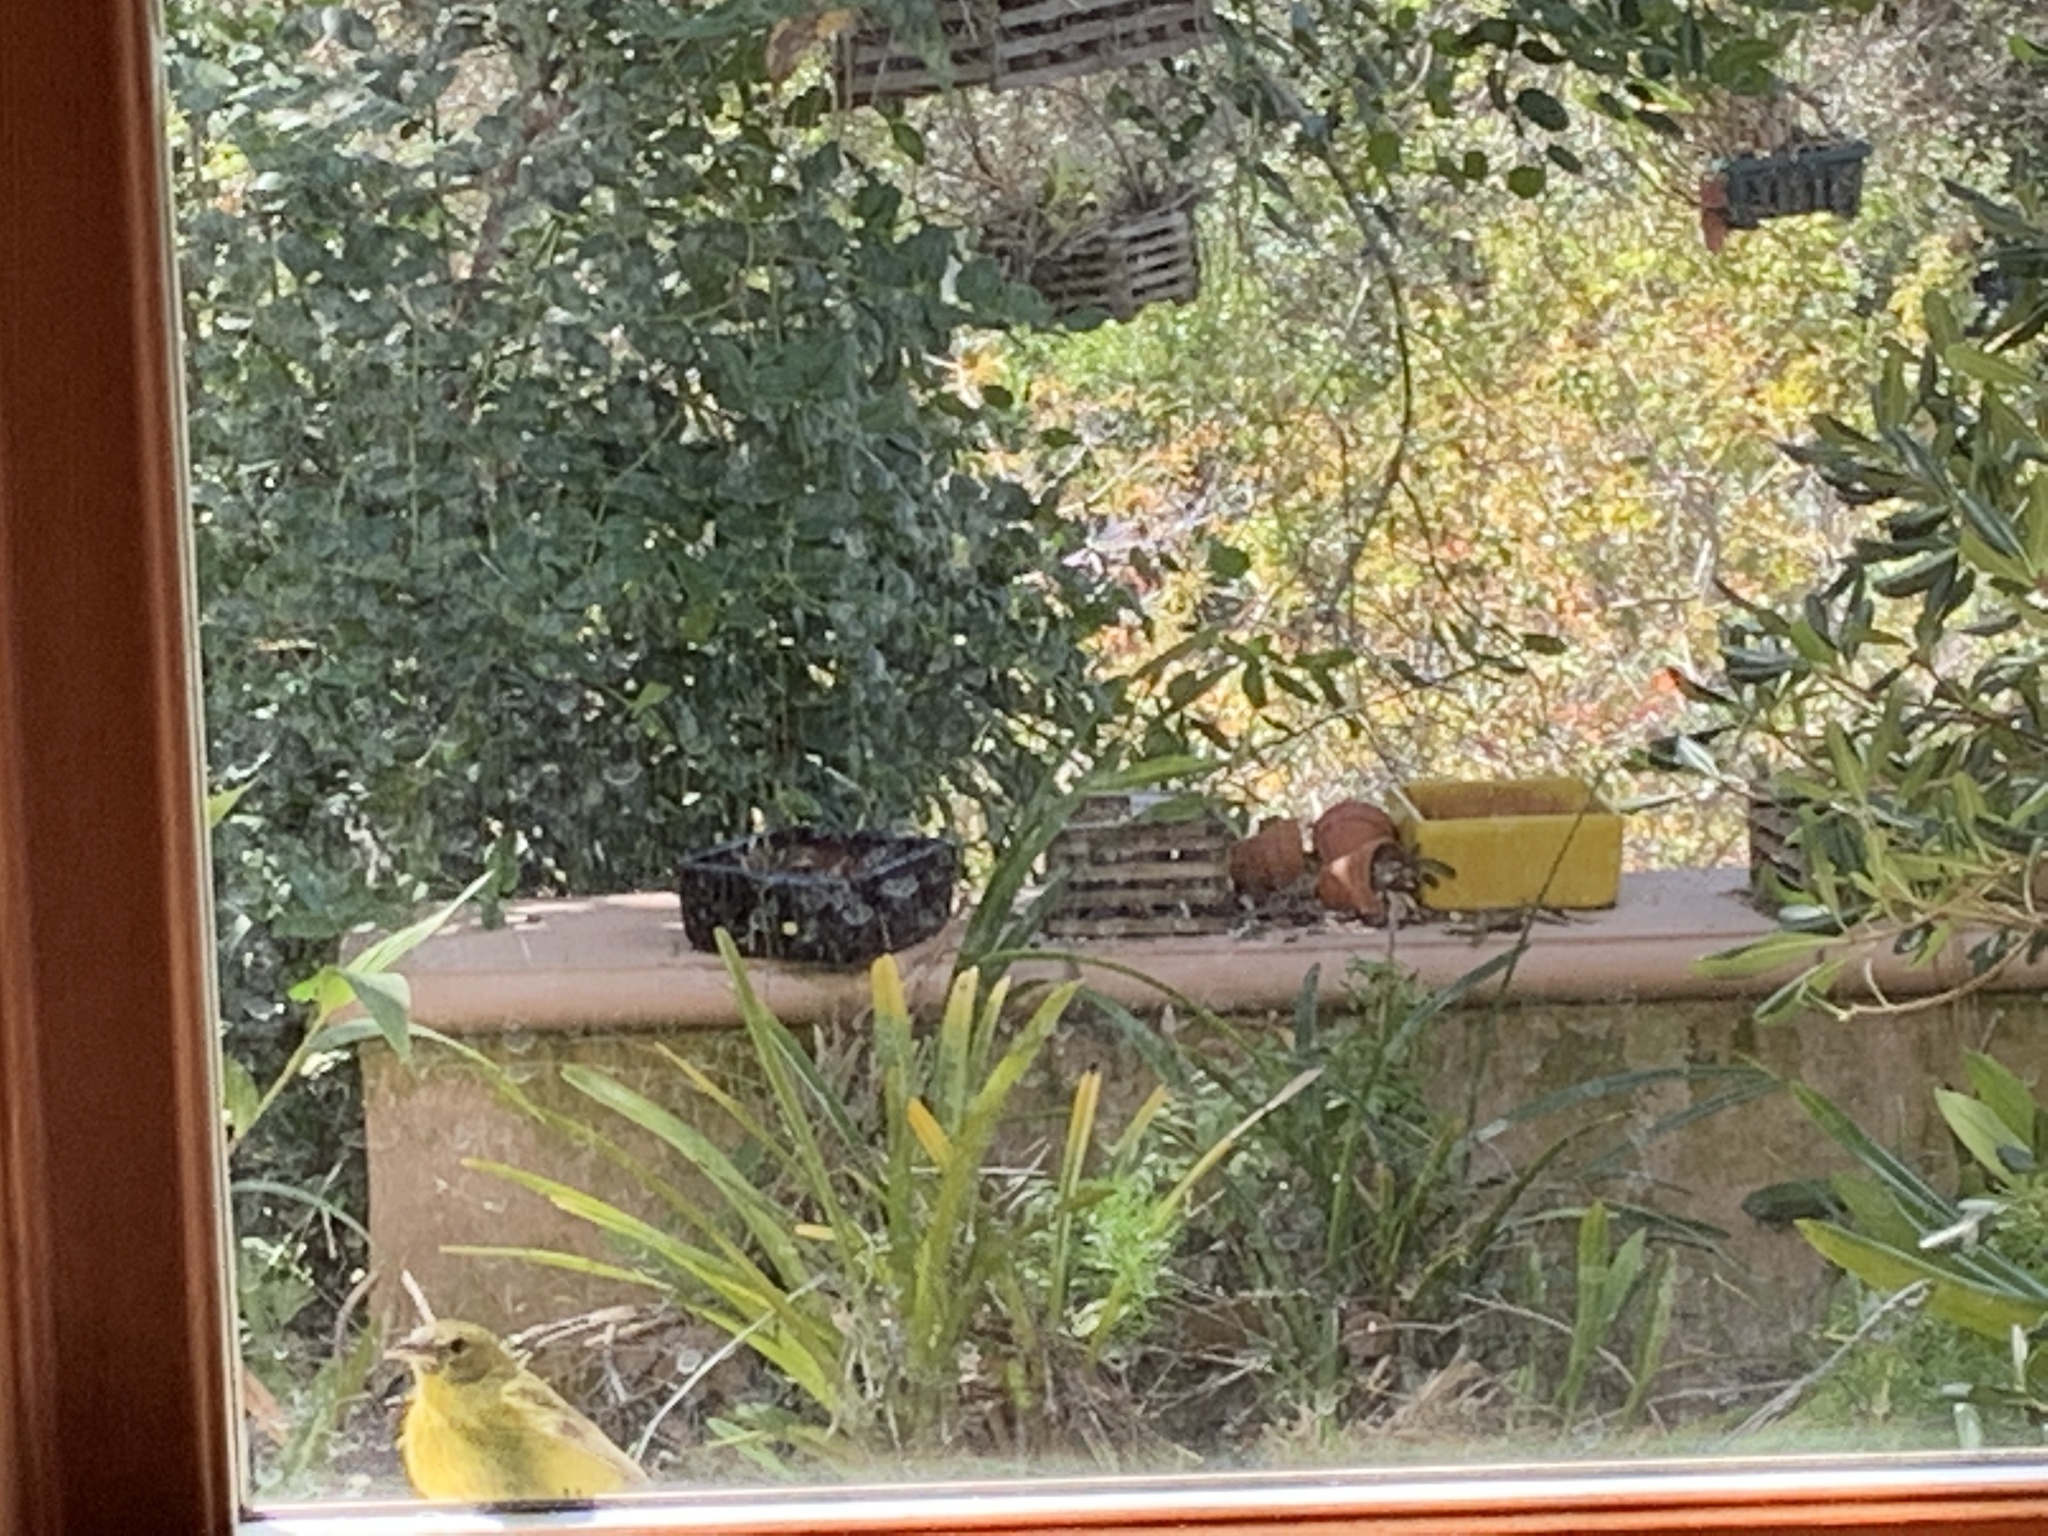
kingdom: Animalia
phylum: Chordata
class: Aves
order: Passeriformes
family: Parulidae
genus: Leiothlypis
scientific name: Leiothlypis celata
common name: Orange-crowned warbler
